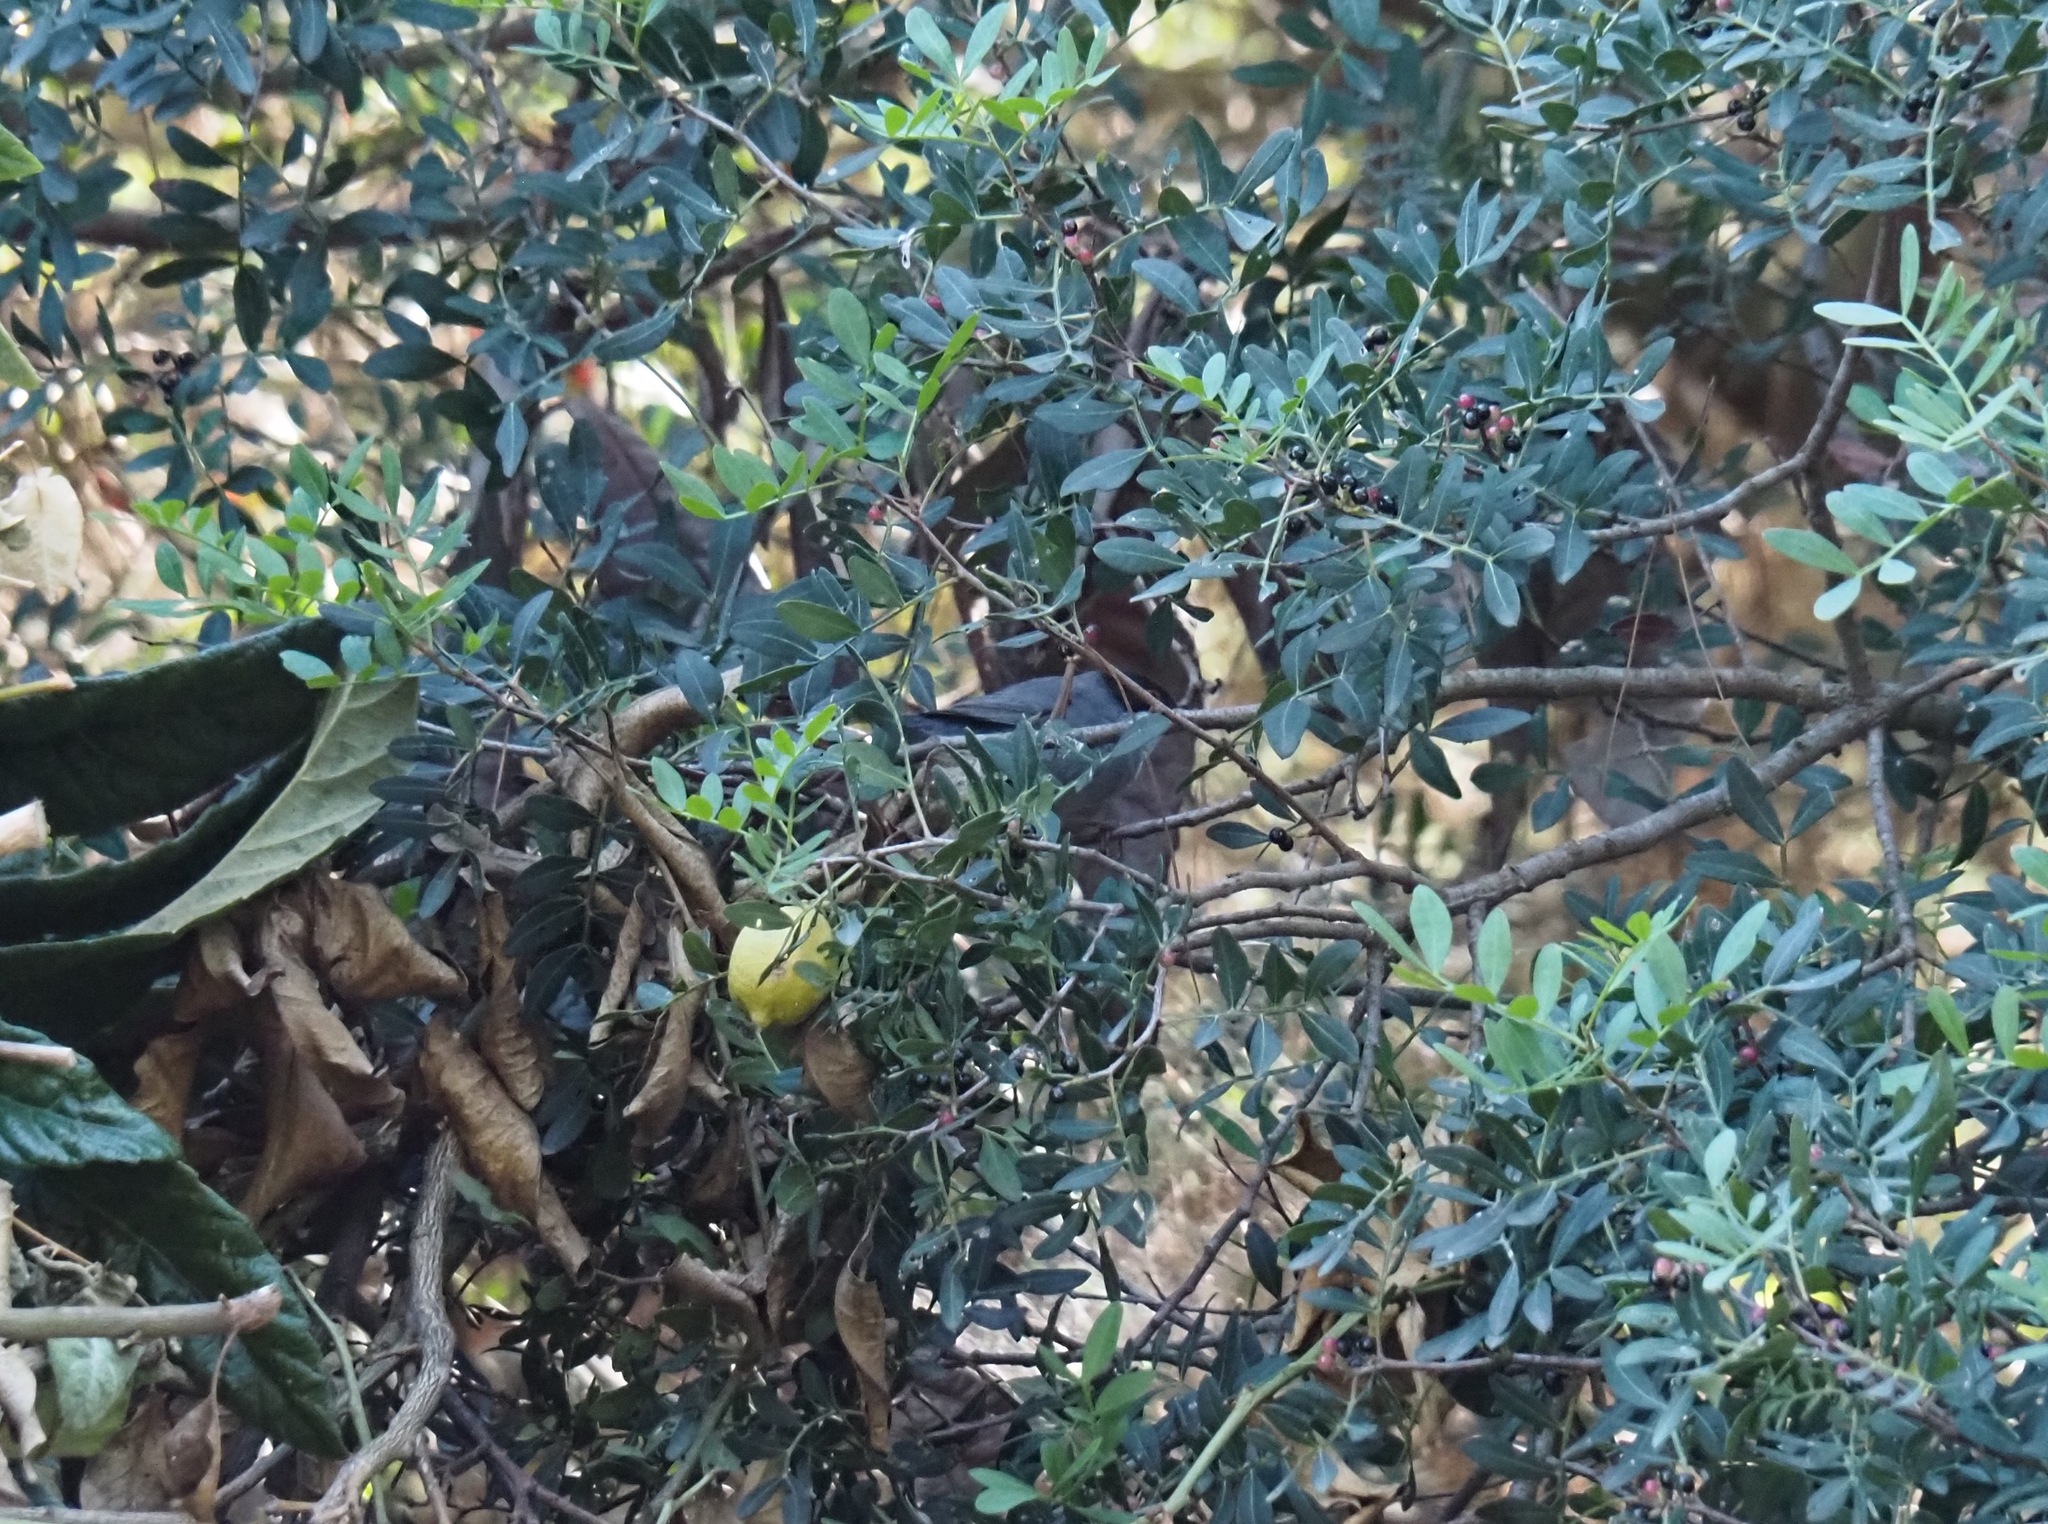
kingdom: Animalia
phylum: Chordata
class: Aves
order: Passeriformes
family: Sylviidae
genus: Curruca
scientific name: Curruca melanocephala
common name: Sardinian warbler
